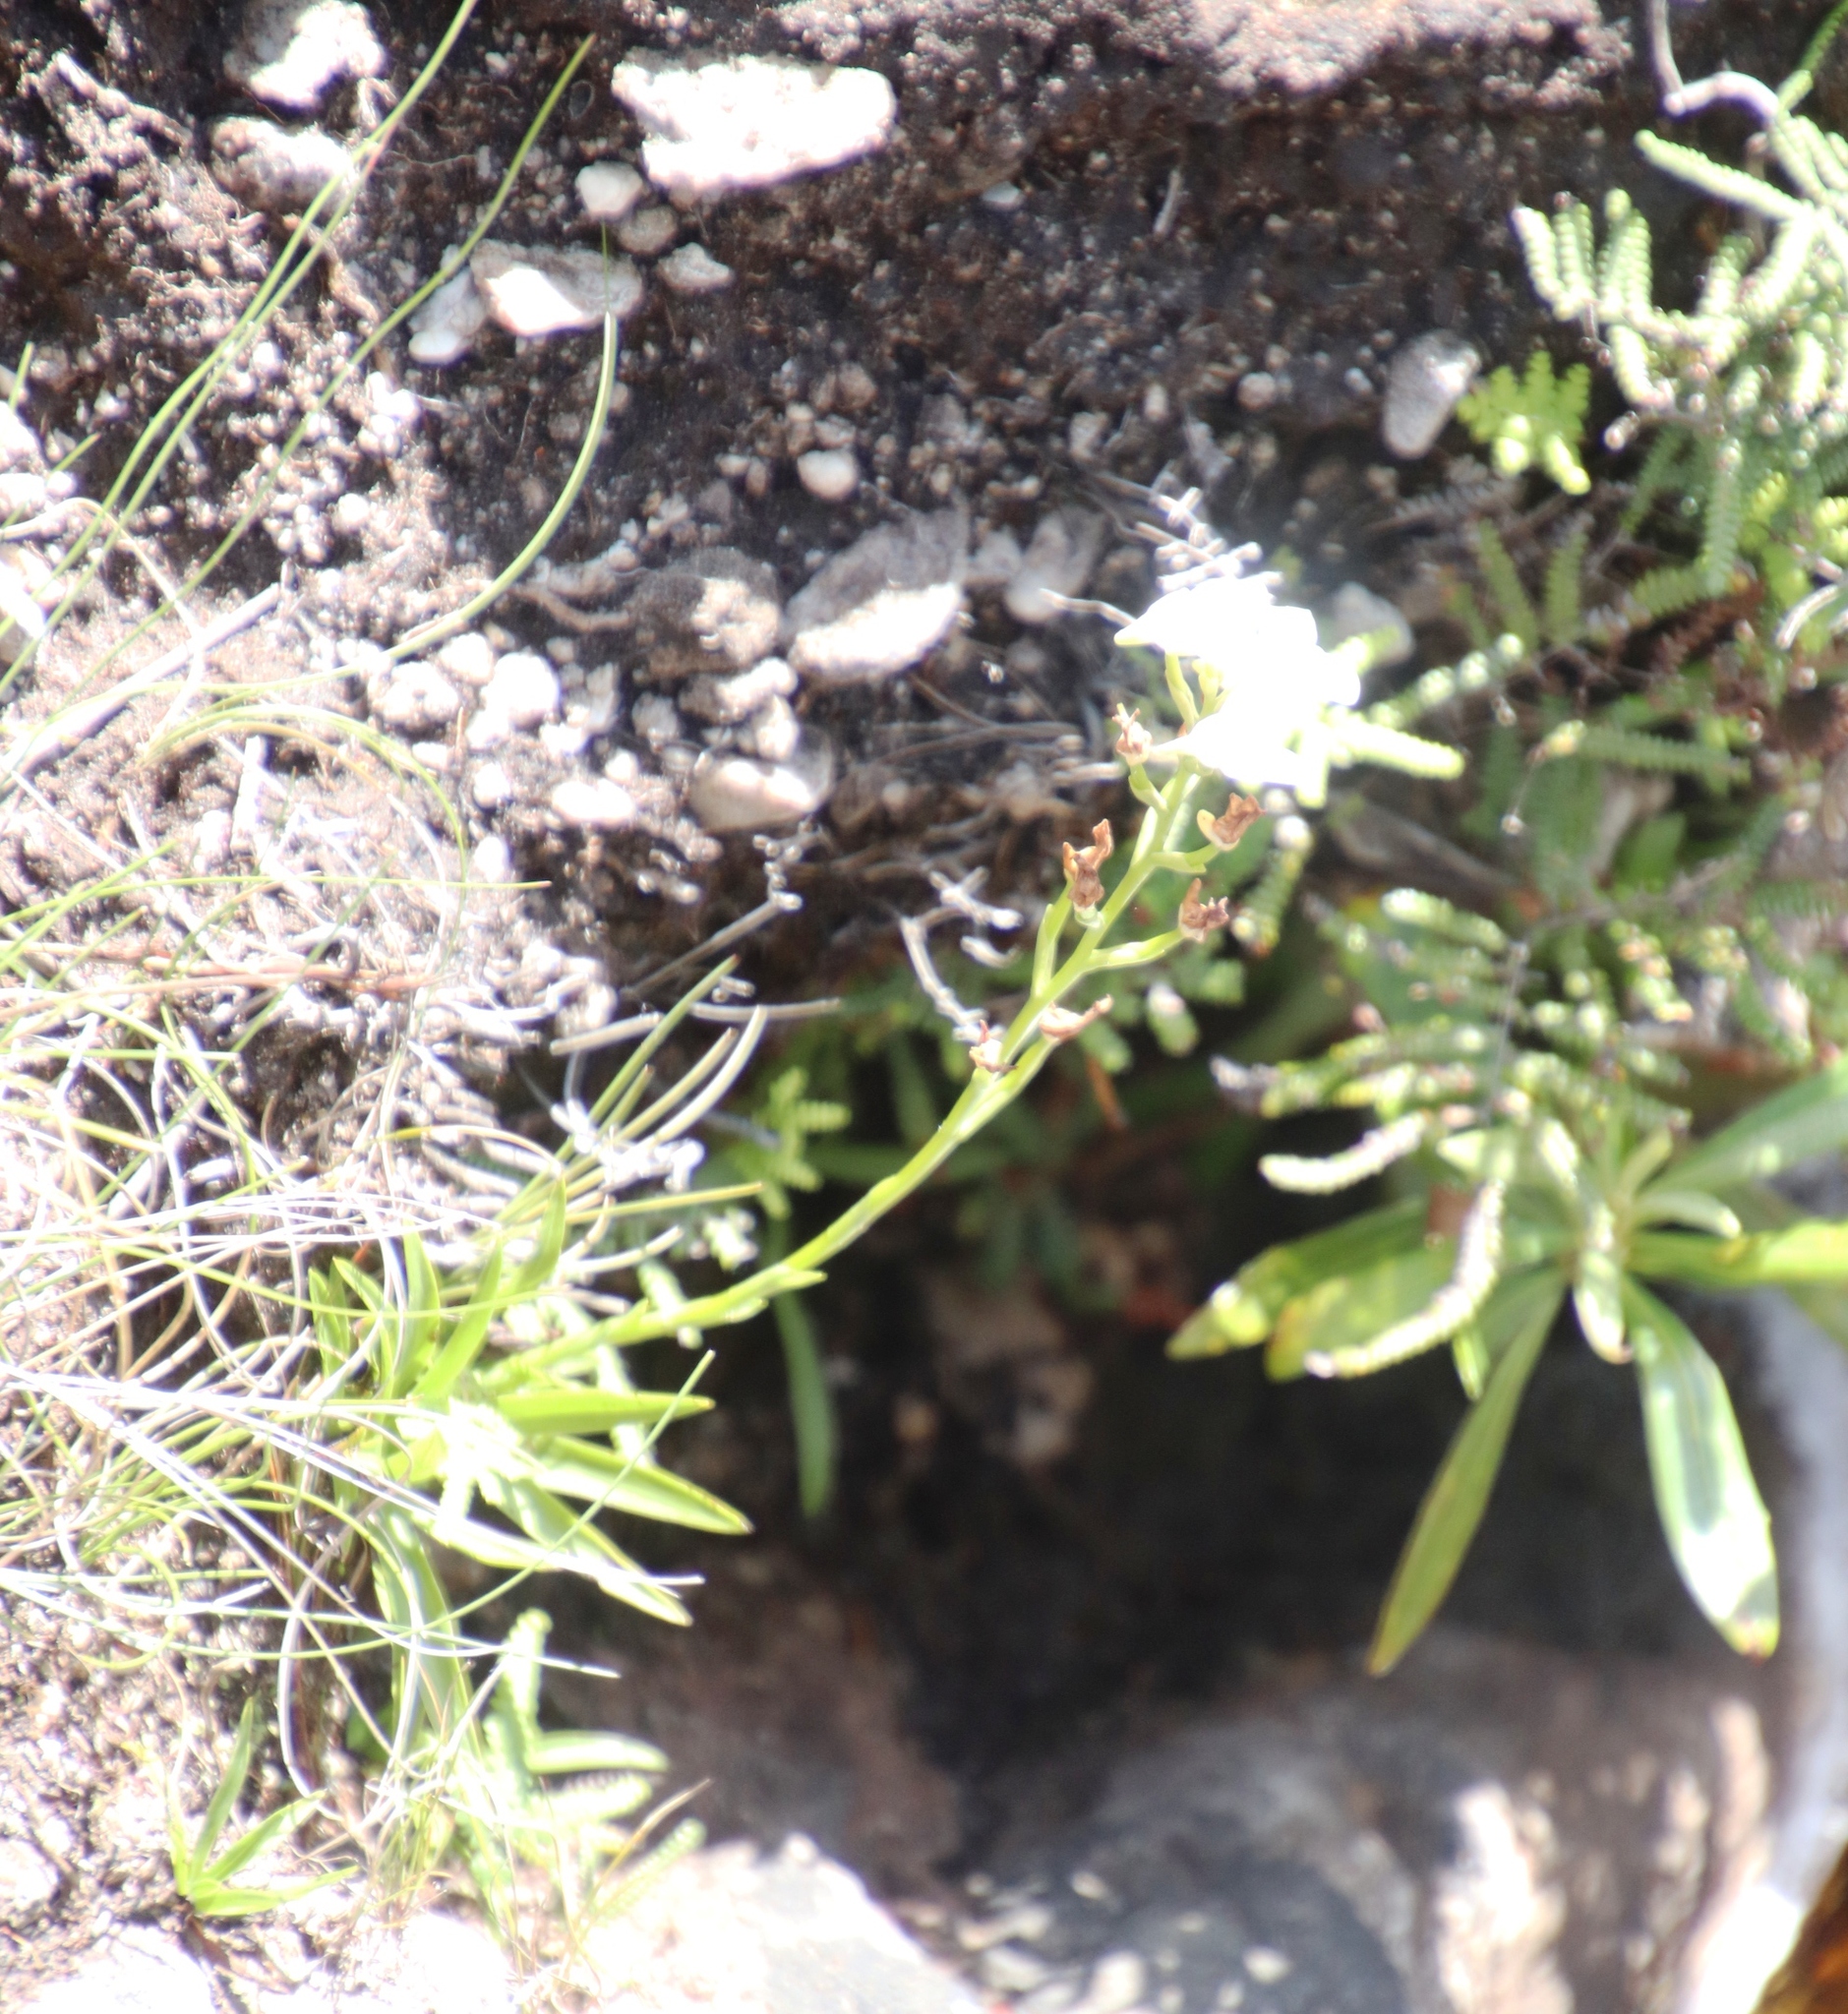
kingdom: Plantae
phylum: Tracheophyta
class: Liliopsida
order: Asparagales
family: Orchidaceae
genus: Disa
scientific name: Disa tripetaloides
